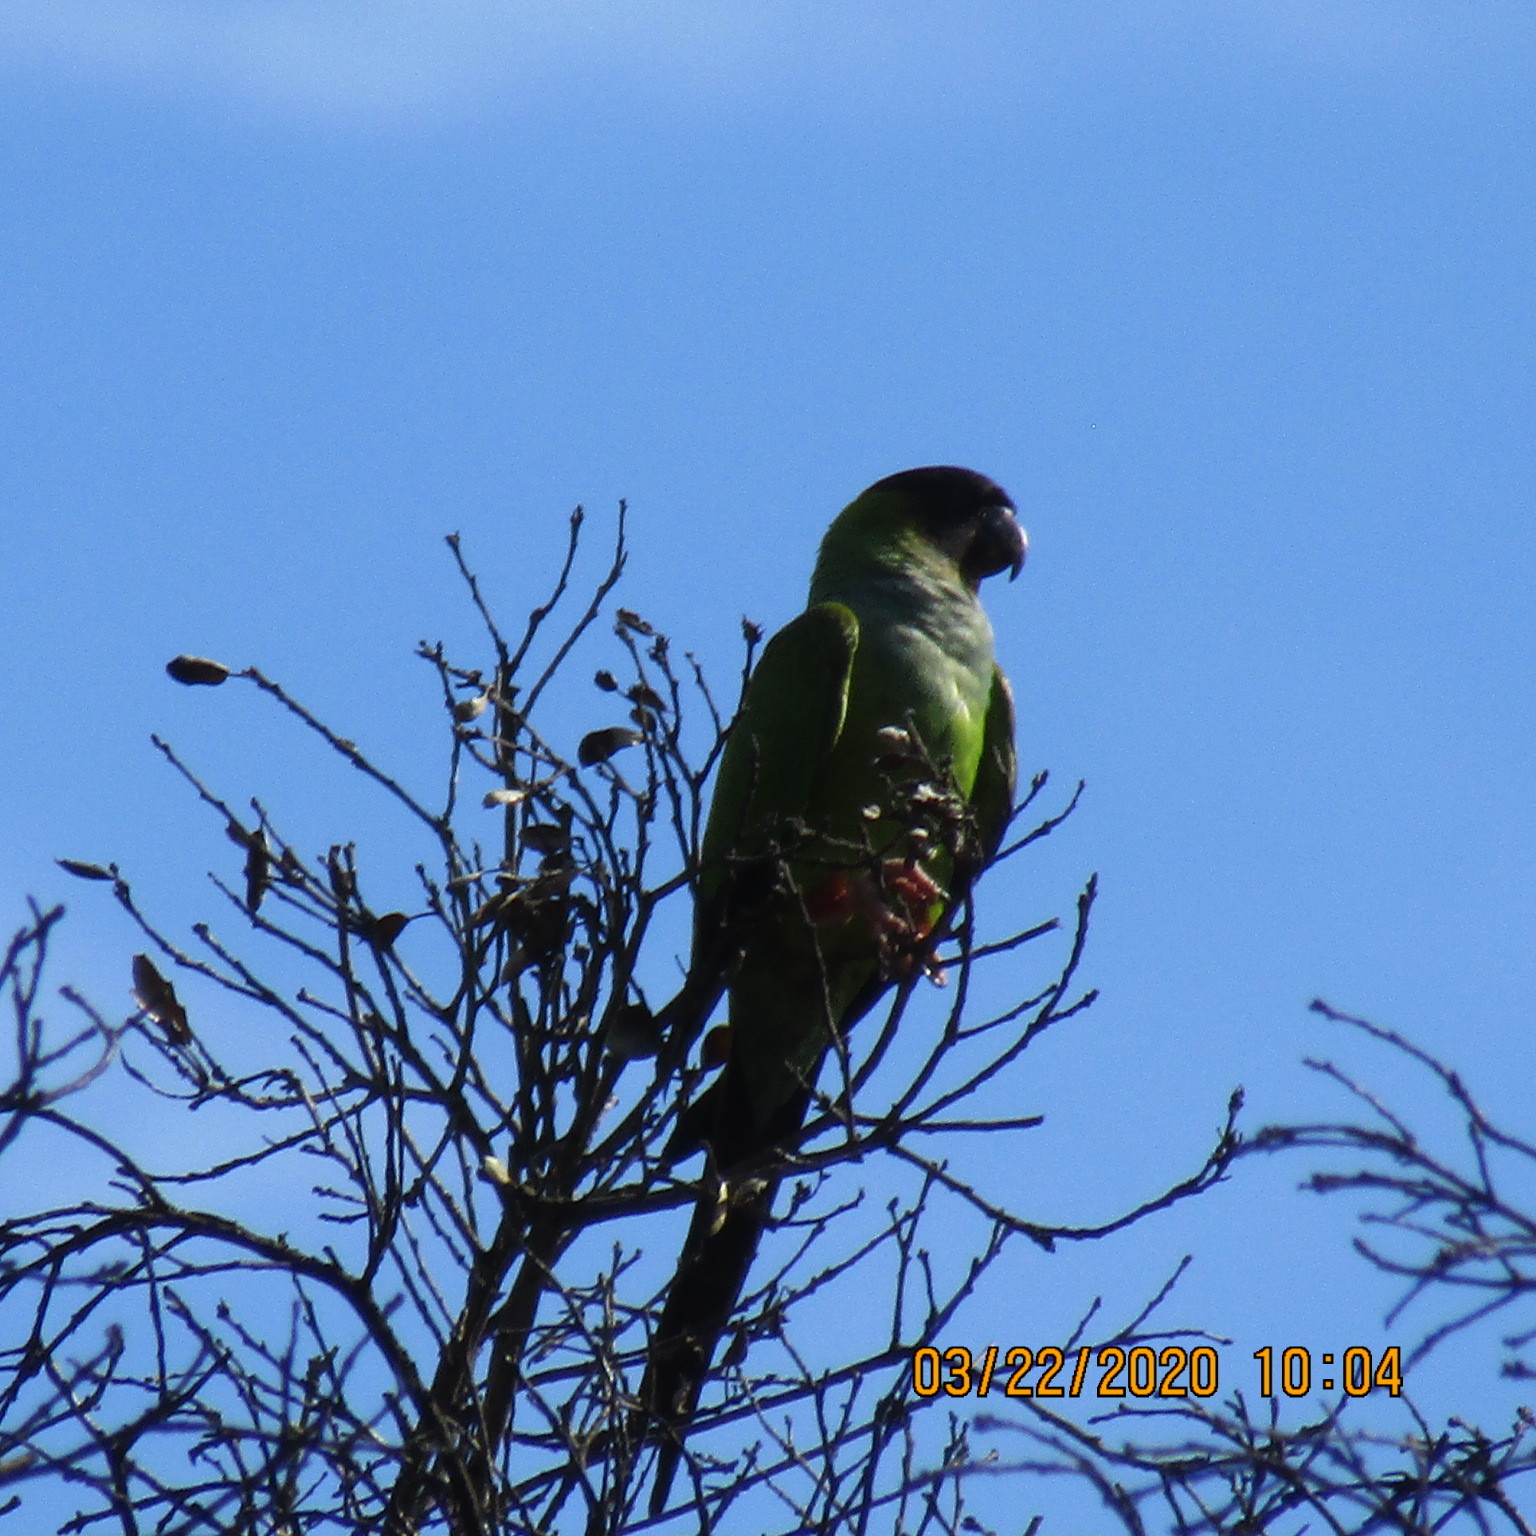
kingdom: Animalia
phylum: Chordata
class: Aves
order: Psittaciformes
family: Psittacidae
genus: Nandayus
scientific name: Nandayus nenday
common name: Nanday parakeet
